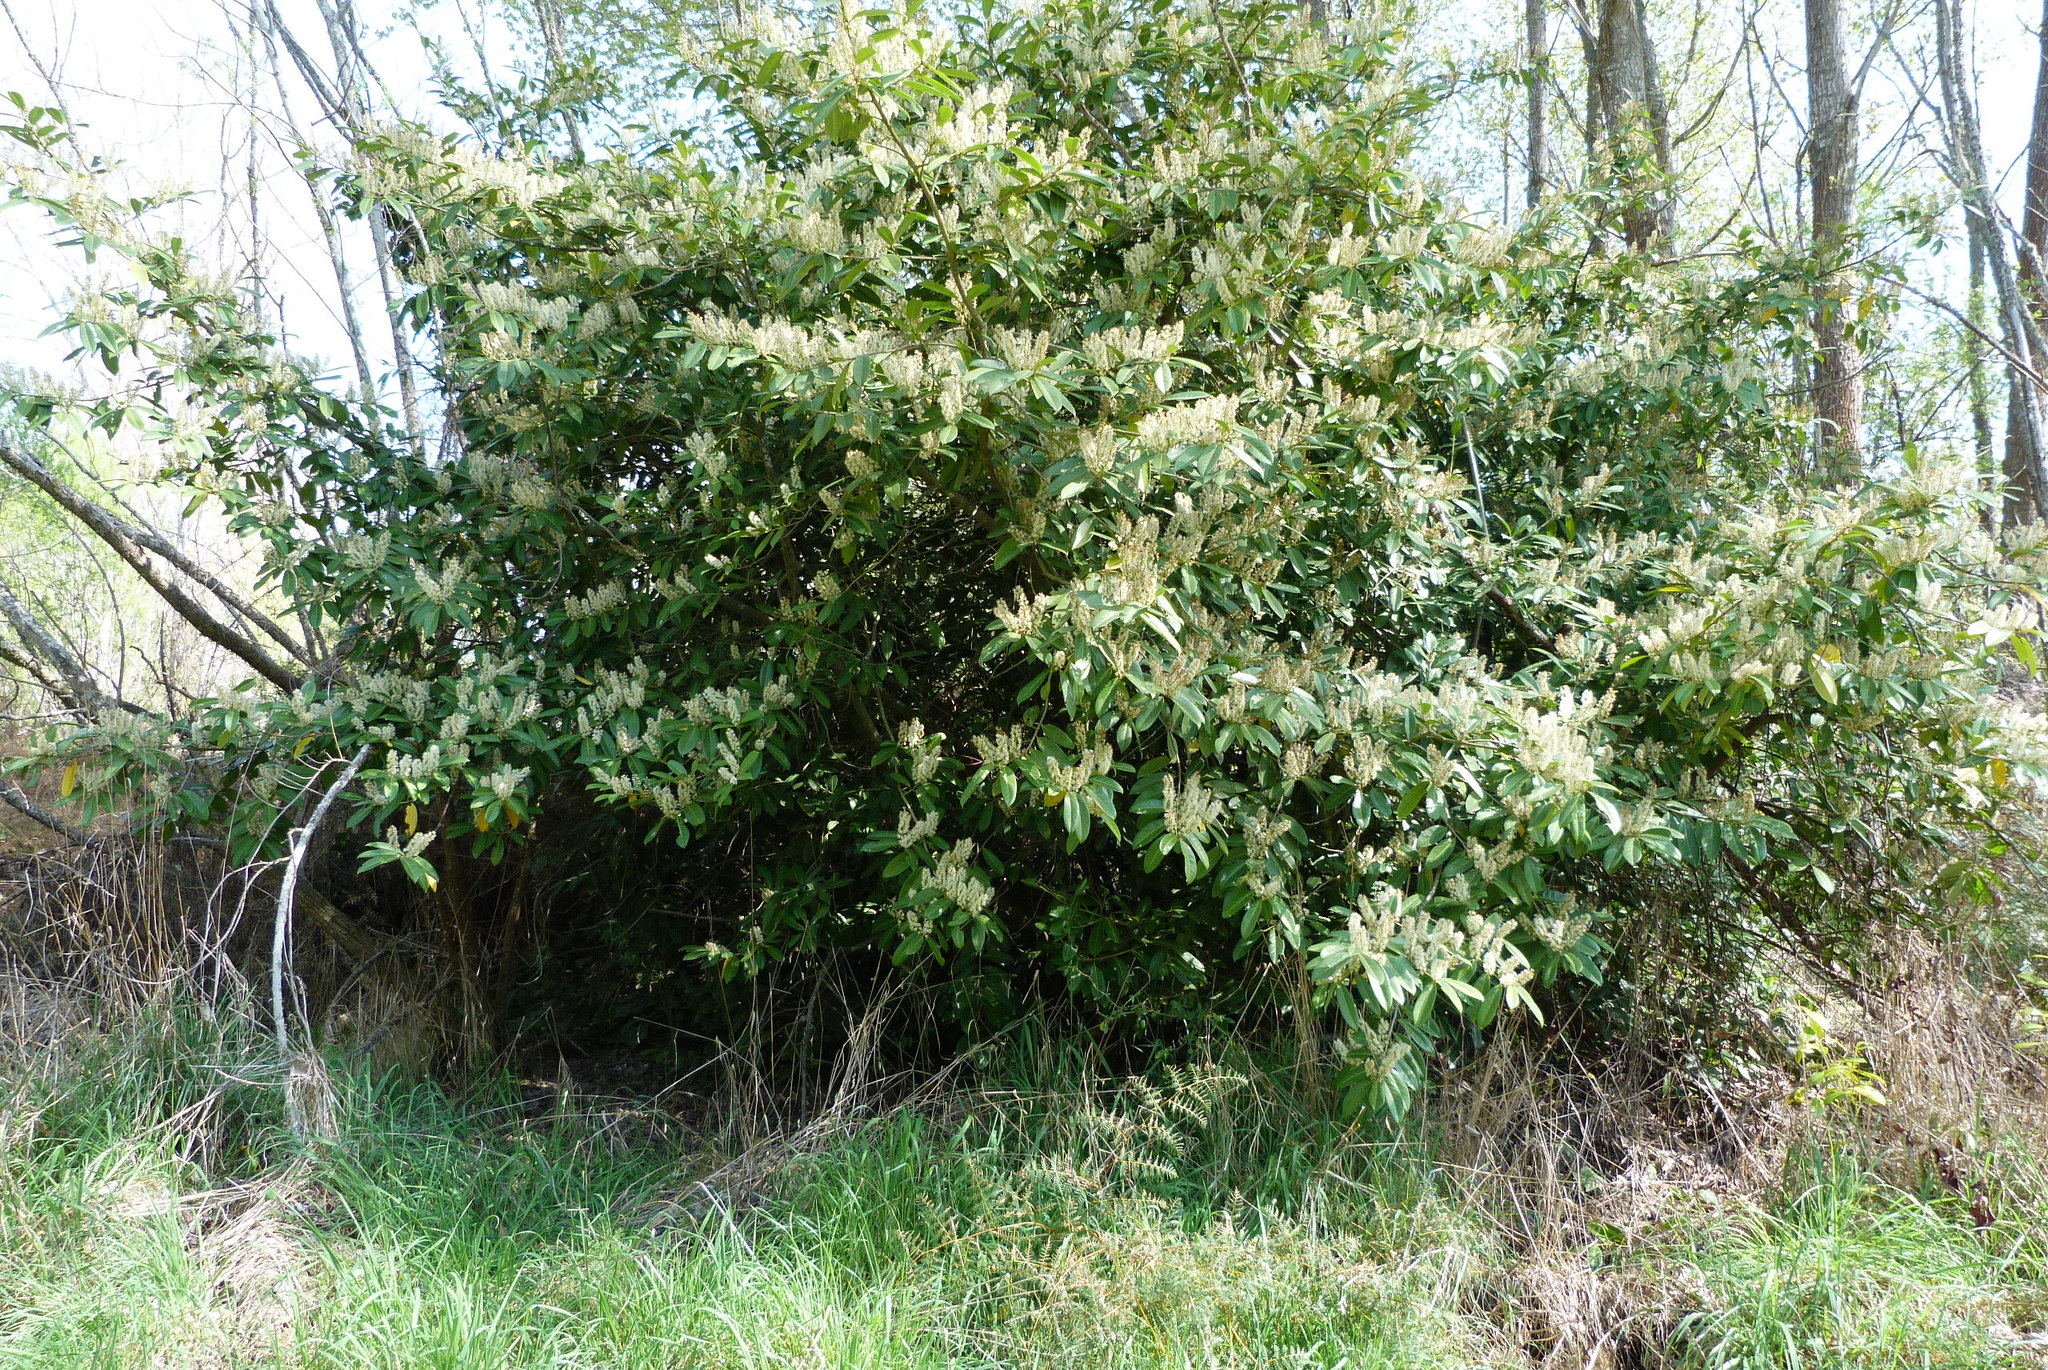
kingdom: Plantae
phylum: Tracheophyta
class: Magnoliopsida
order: Rosales
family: Rosaceae
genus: Prunus
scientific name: Prunus laurocerasus
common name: Cherry laurel
